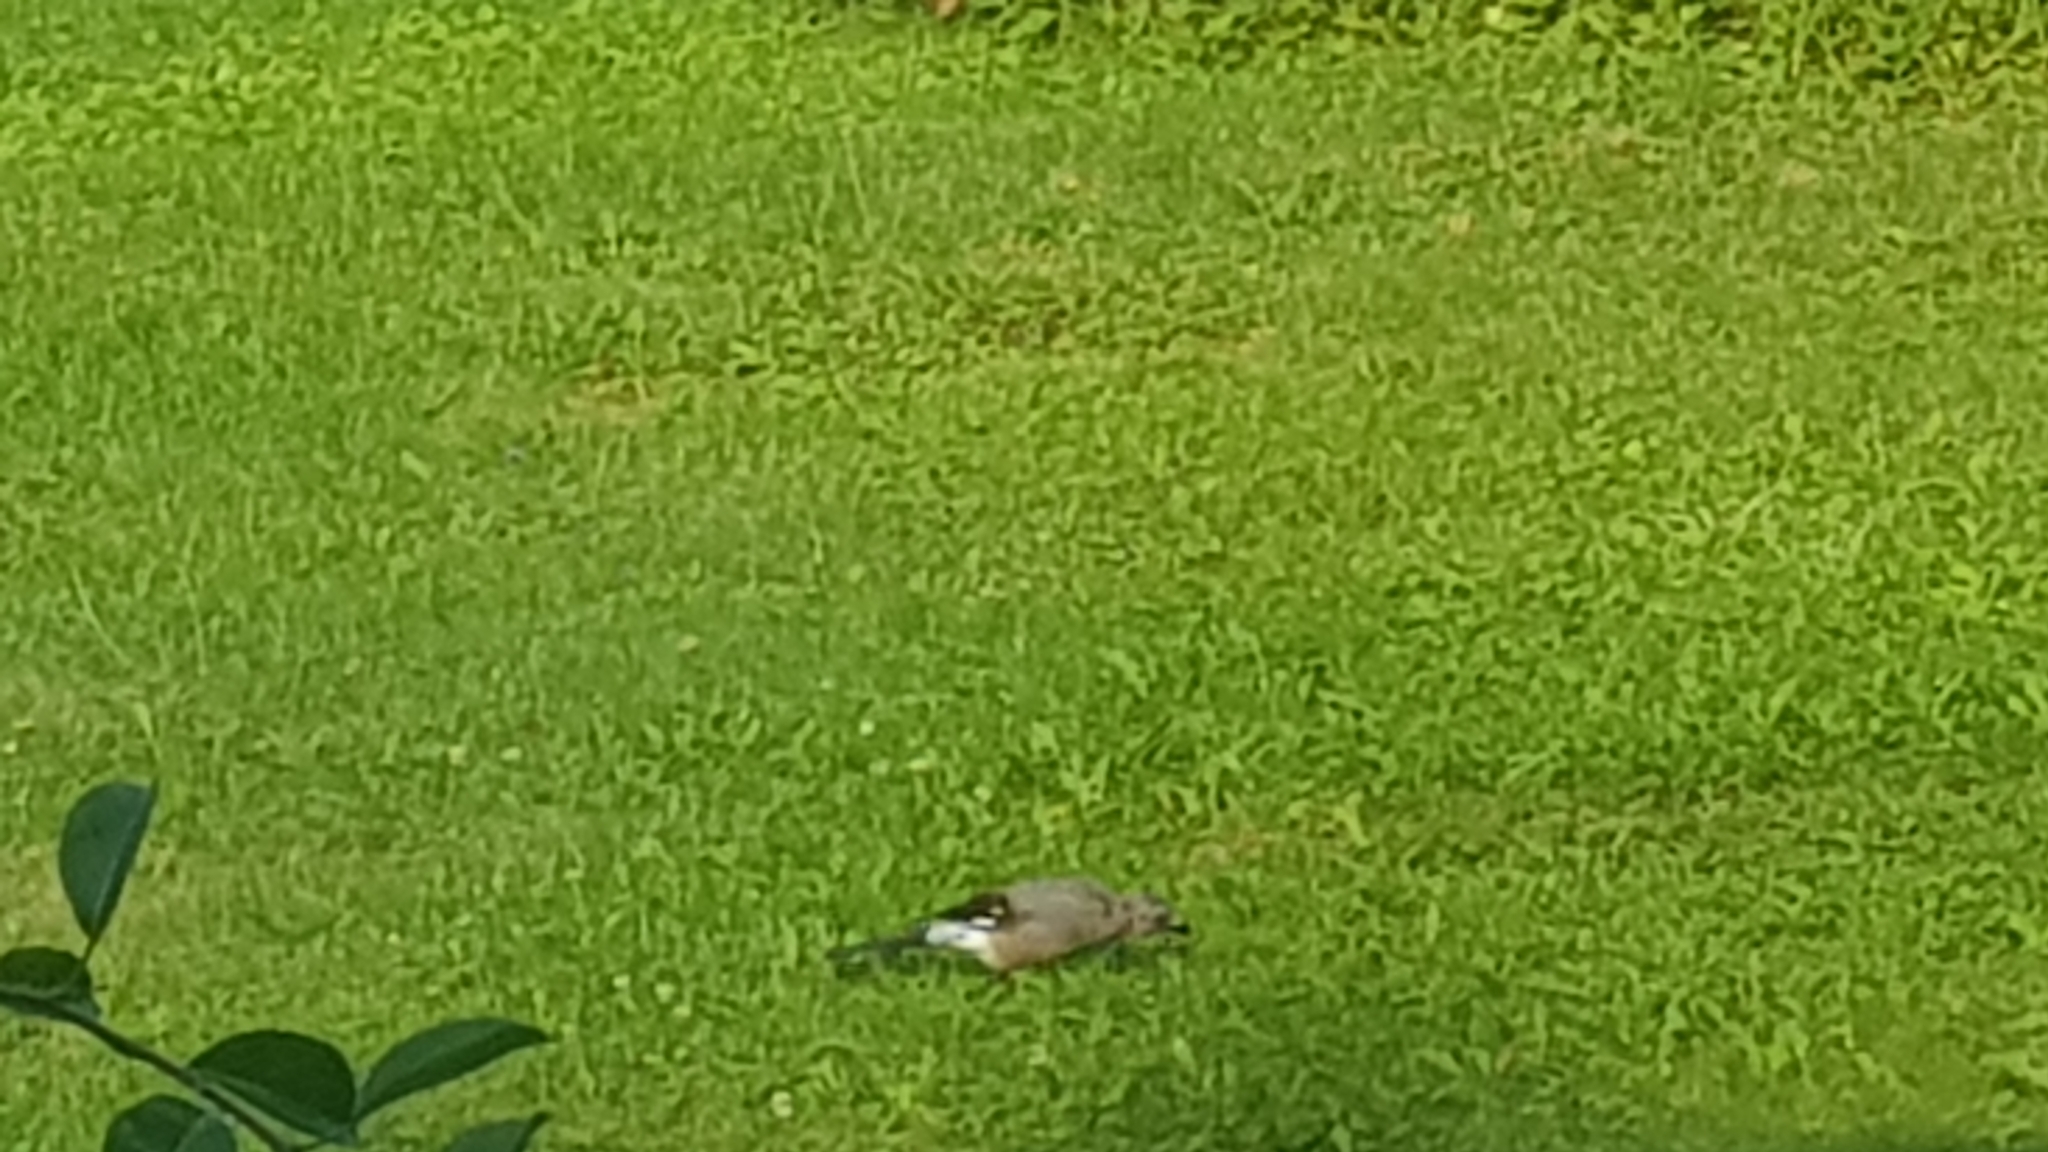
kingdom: Animalia
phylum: Chordata
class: Aves
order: Passeriformes
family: Corvidae
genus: Garrulus
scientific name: Garrulus glandarius
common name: Eurasian jay
